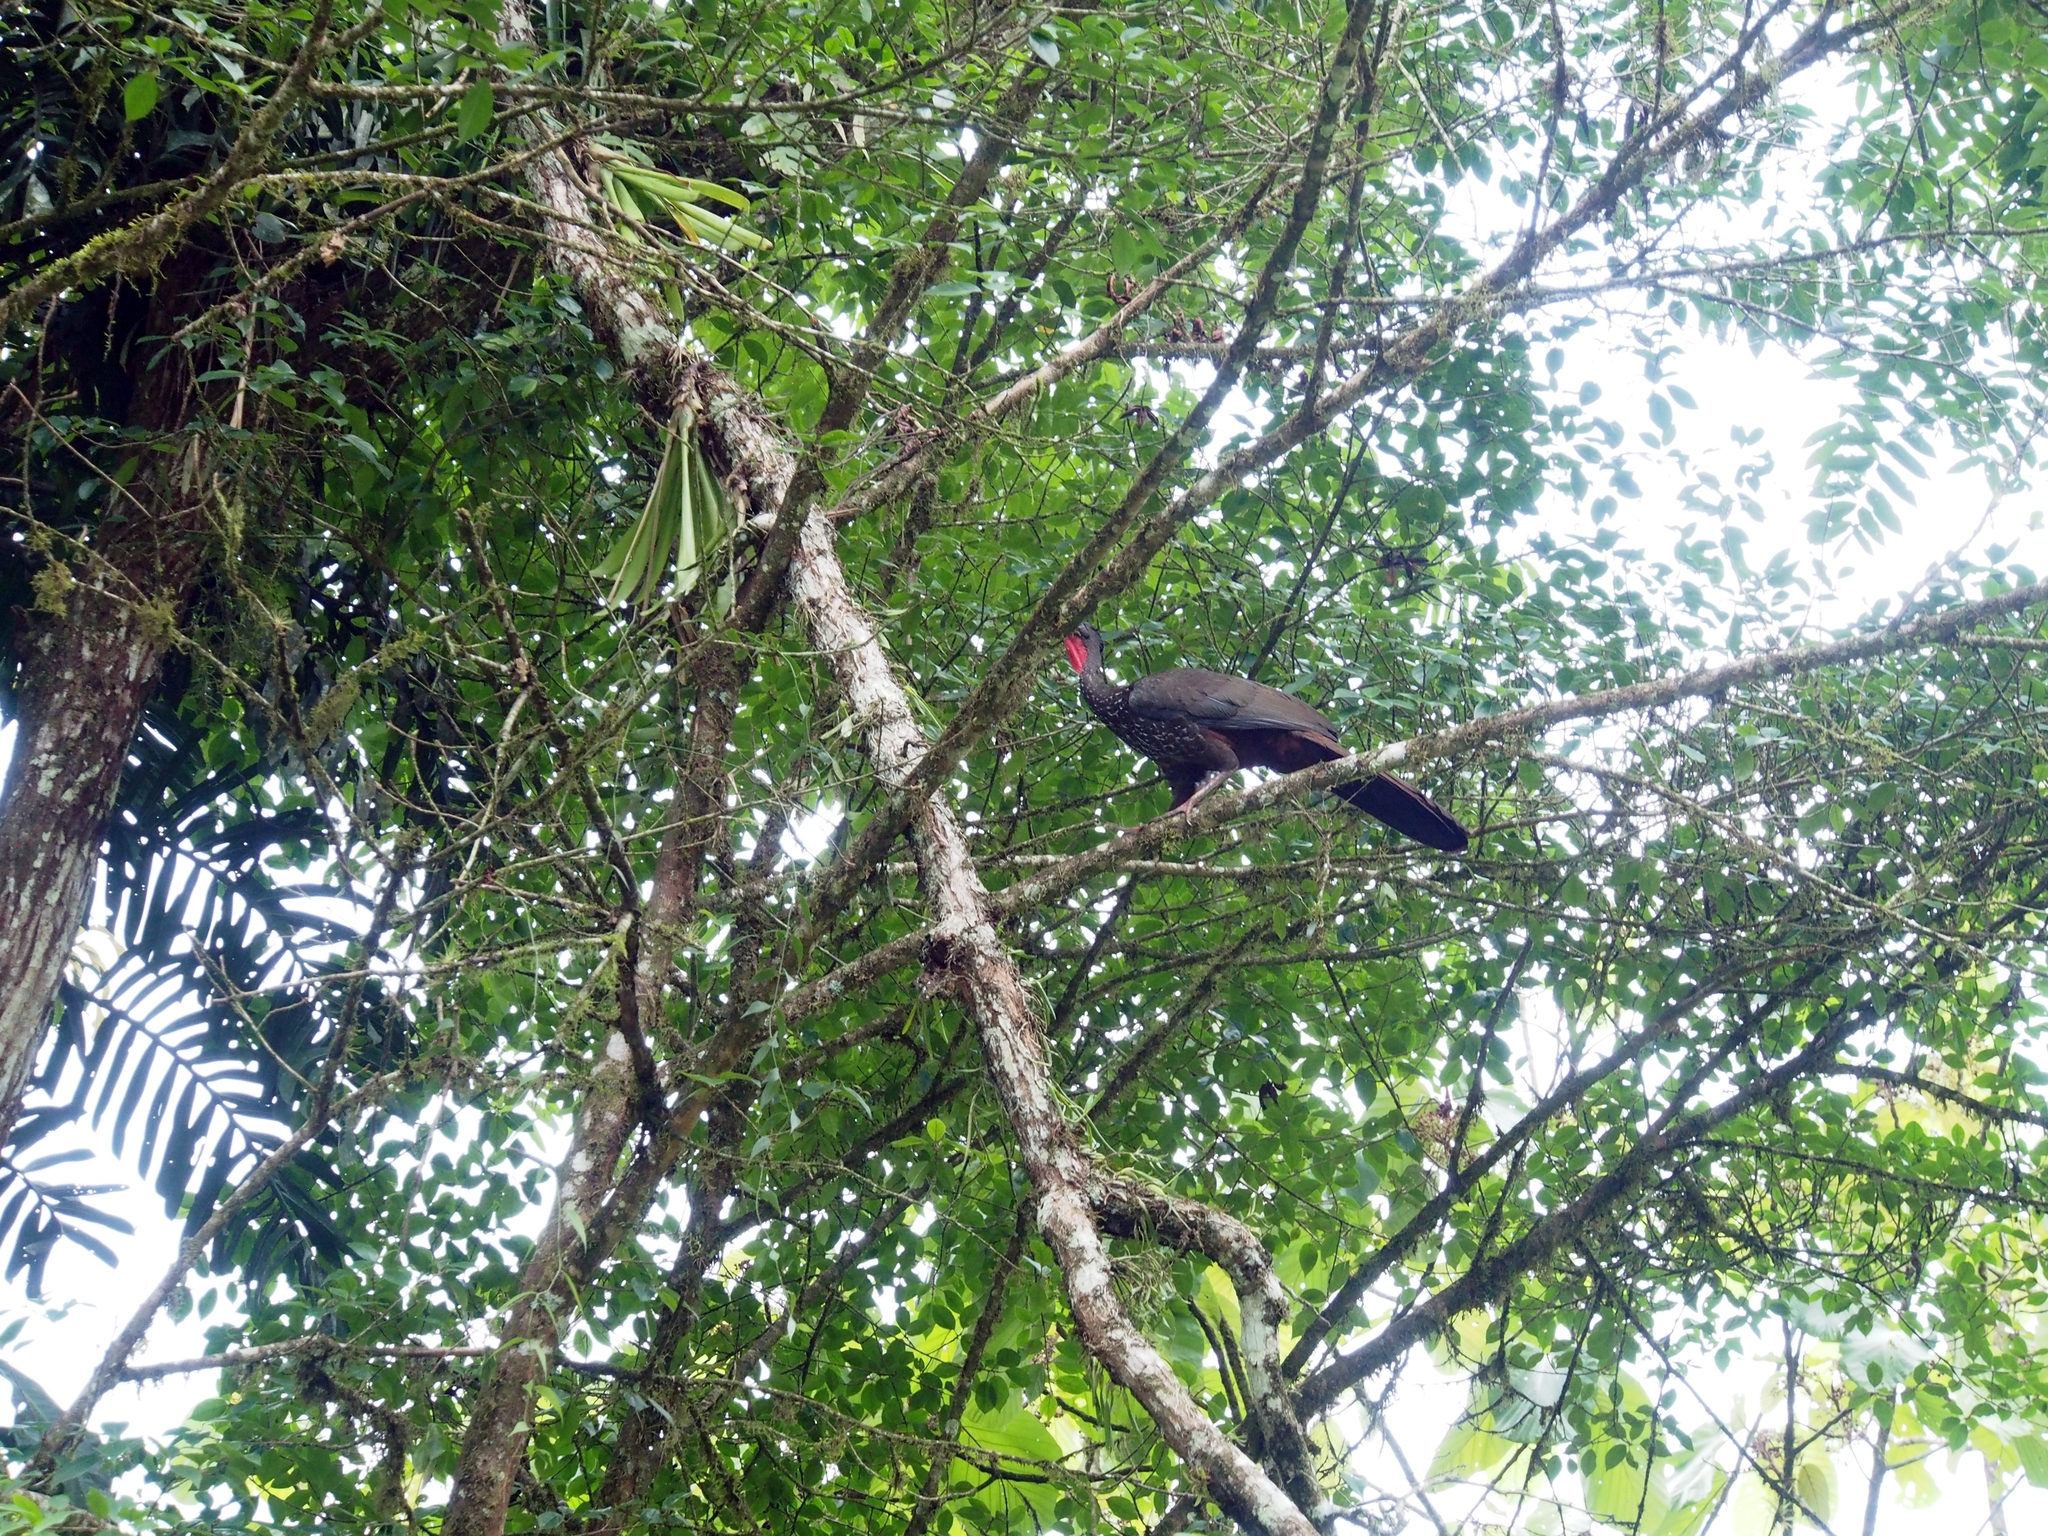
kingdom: Animalia
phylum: Chordata
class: Aves
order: Galliformes
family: Cracidae
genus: Penelope
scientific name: Penelope purpurascens
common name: Crested guan
